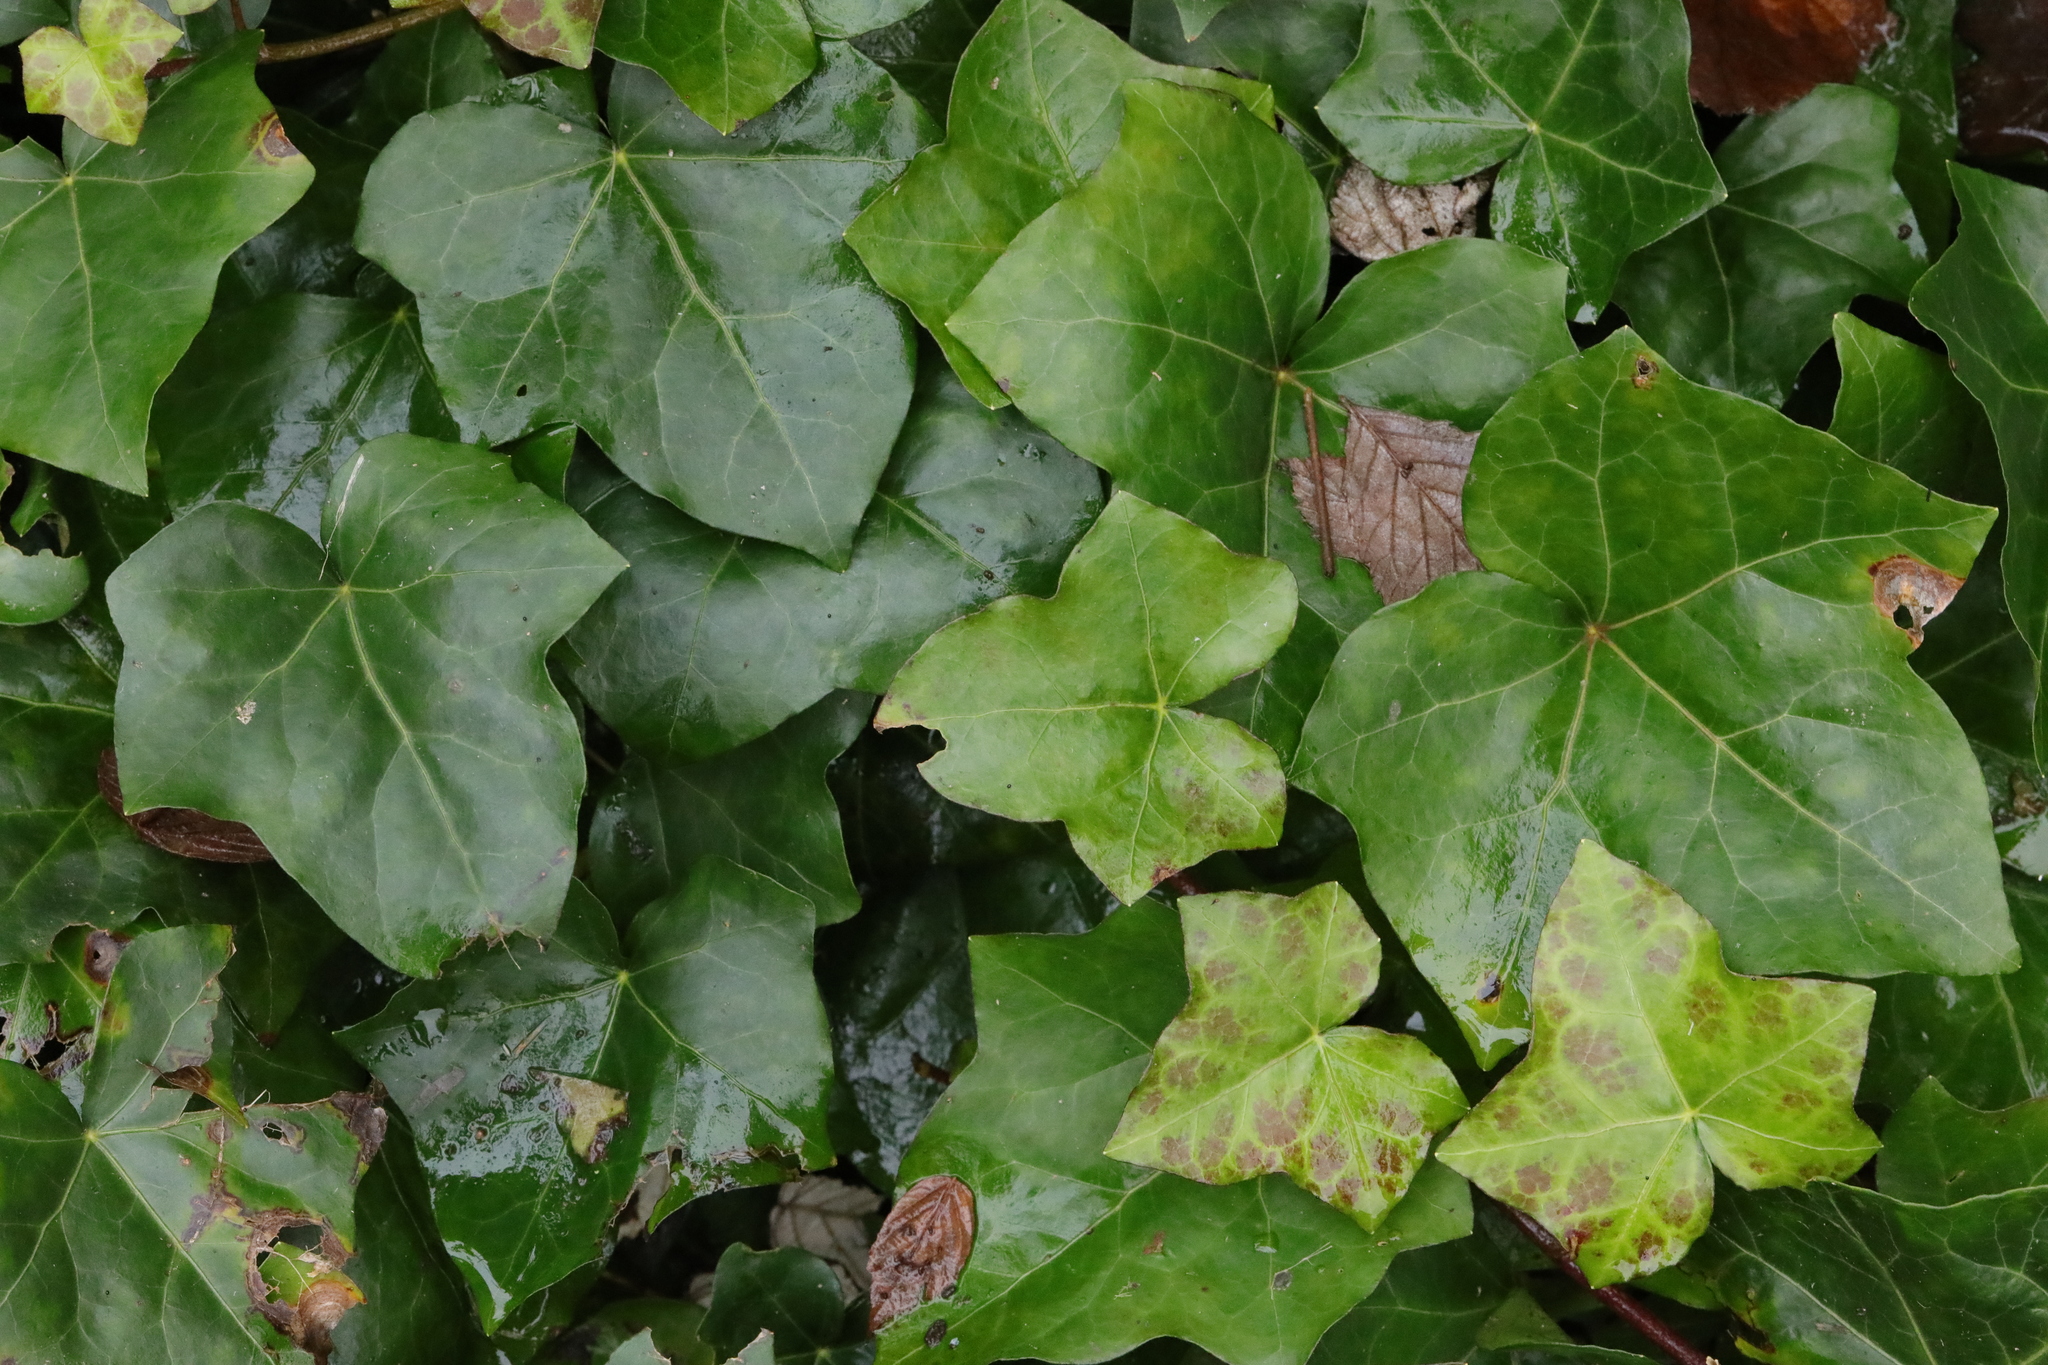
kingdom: Plantae
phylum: Tracheophyta
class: Magnoliopsida
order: Apiales
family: Araliaceae
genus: Hedera
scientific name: Hedera helix
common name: Ivy
